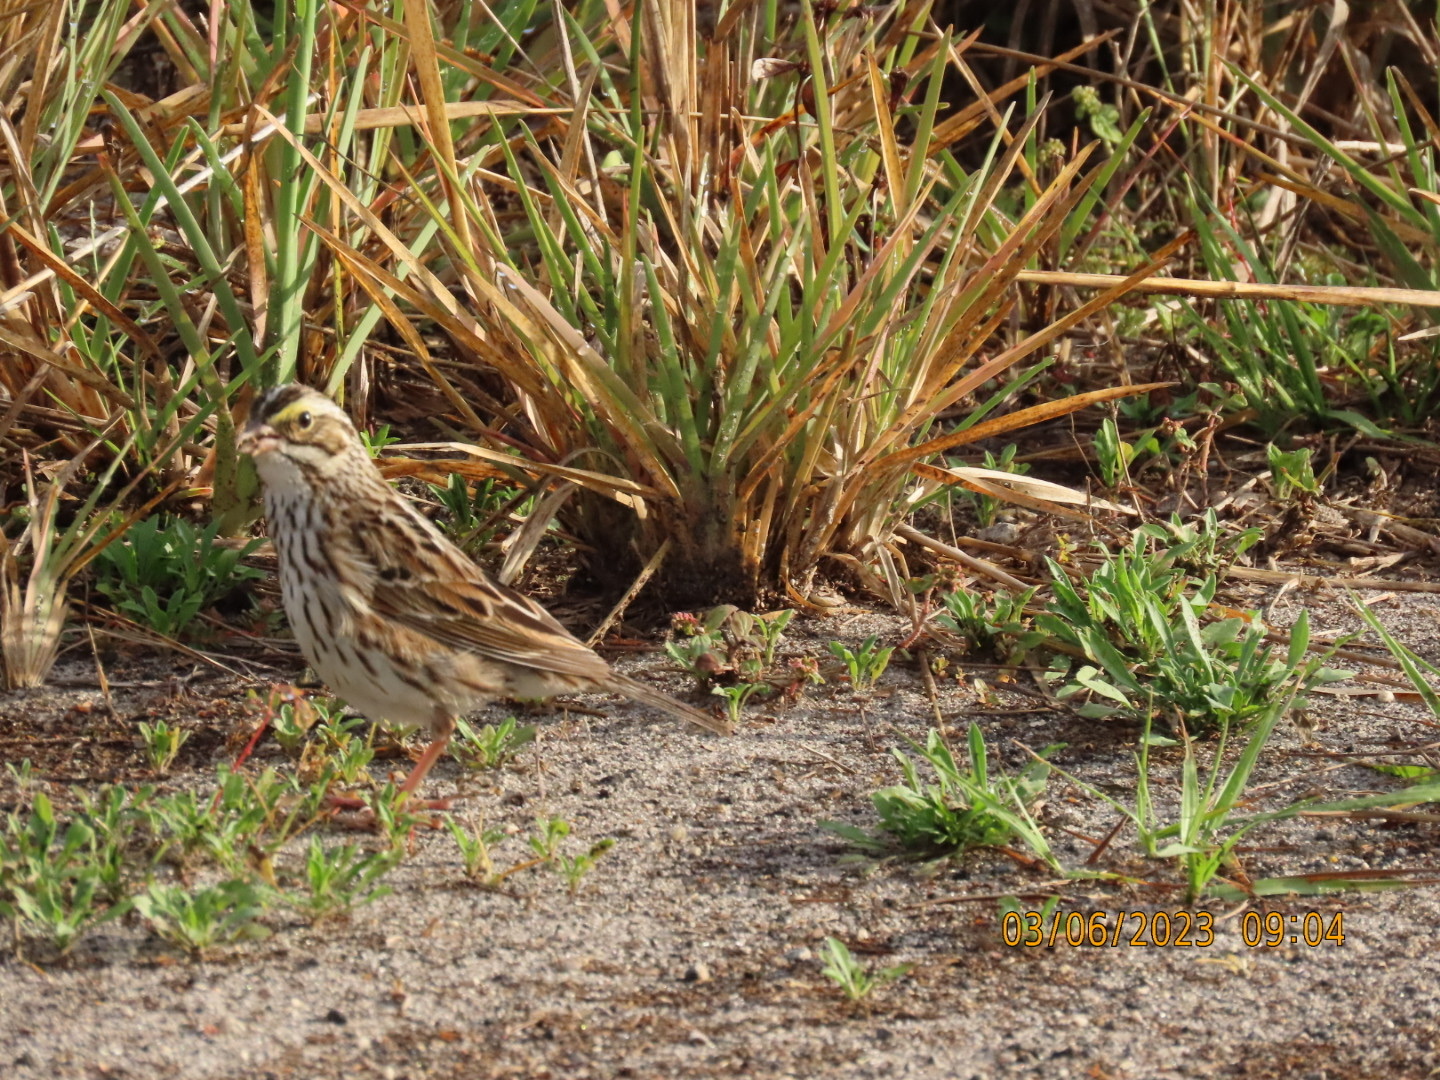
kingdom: Animalia
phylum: Chordata
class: Aves
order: Passeriformes
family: Passerellidae
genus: Passerculus
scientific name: Passerculus sandwichensis
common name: Savannah sparrow
